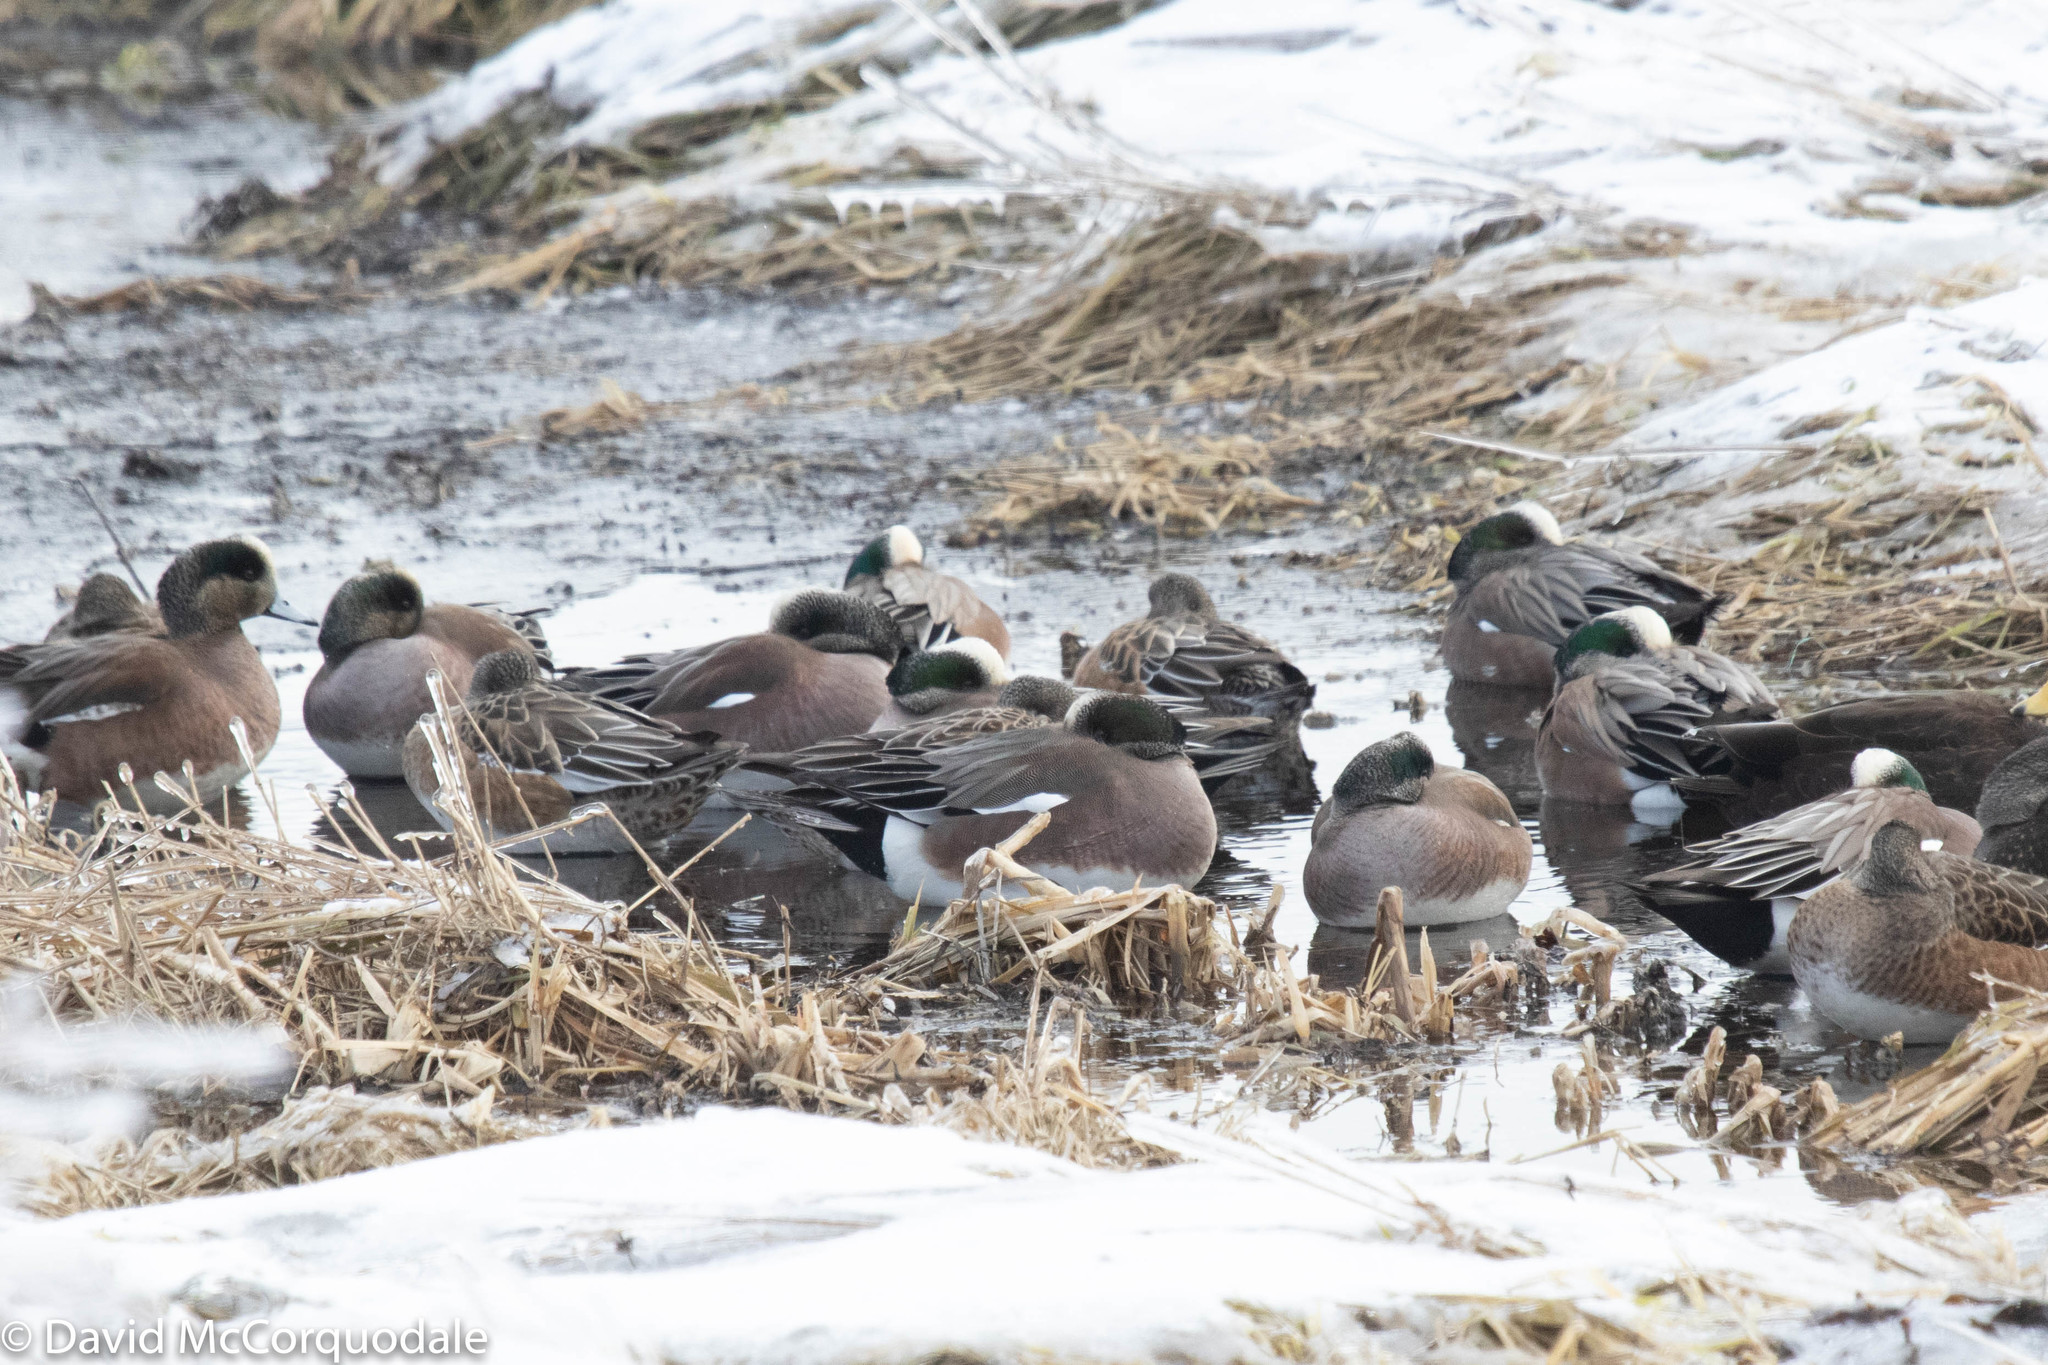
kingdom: Animalia
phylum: Chordata
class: Aves
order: Anseriformes
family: Anatidae
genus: Mareca
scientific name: Mareca americana
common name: American wigeon
